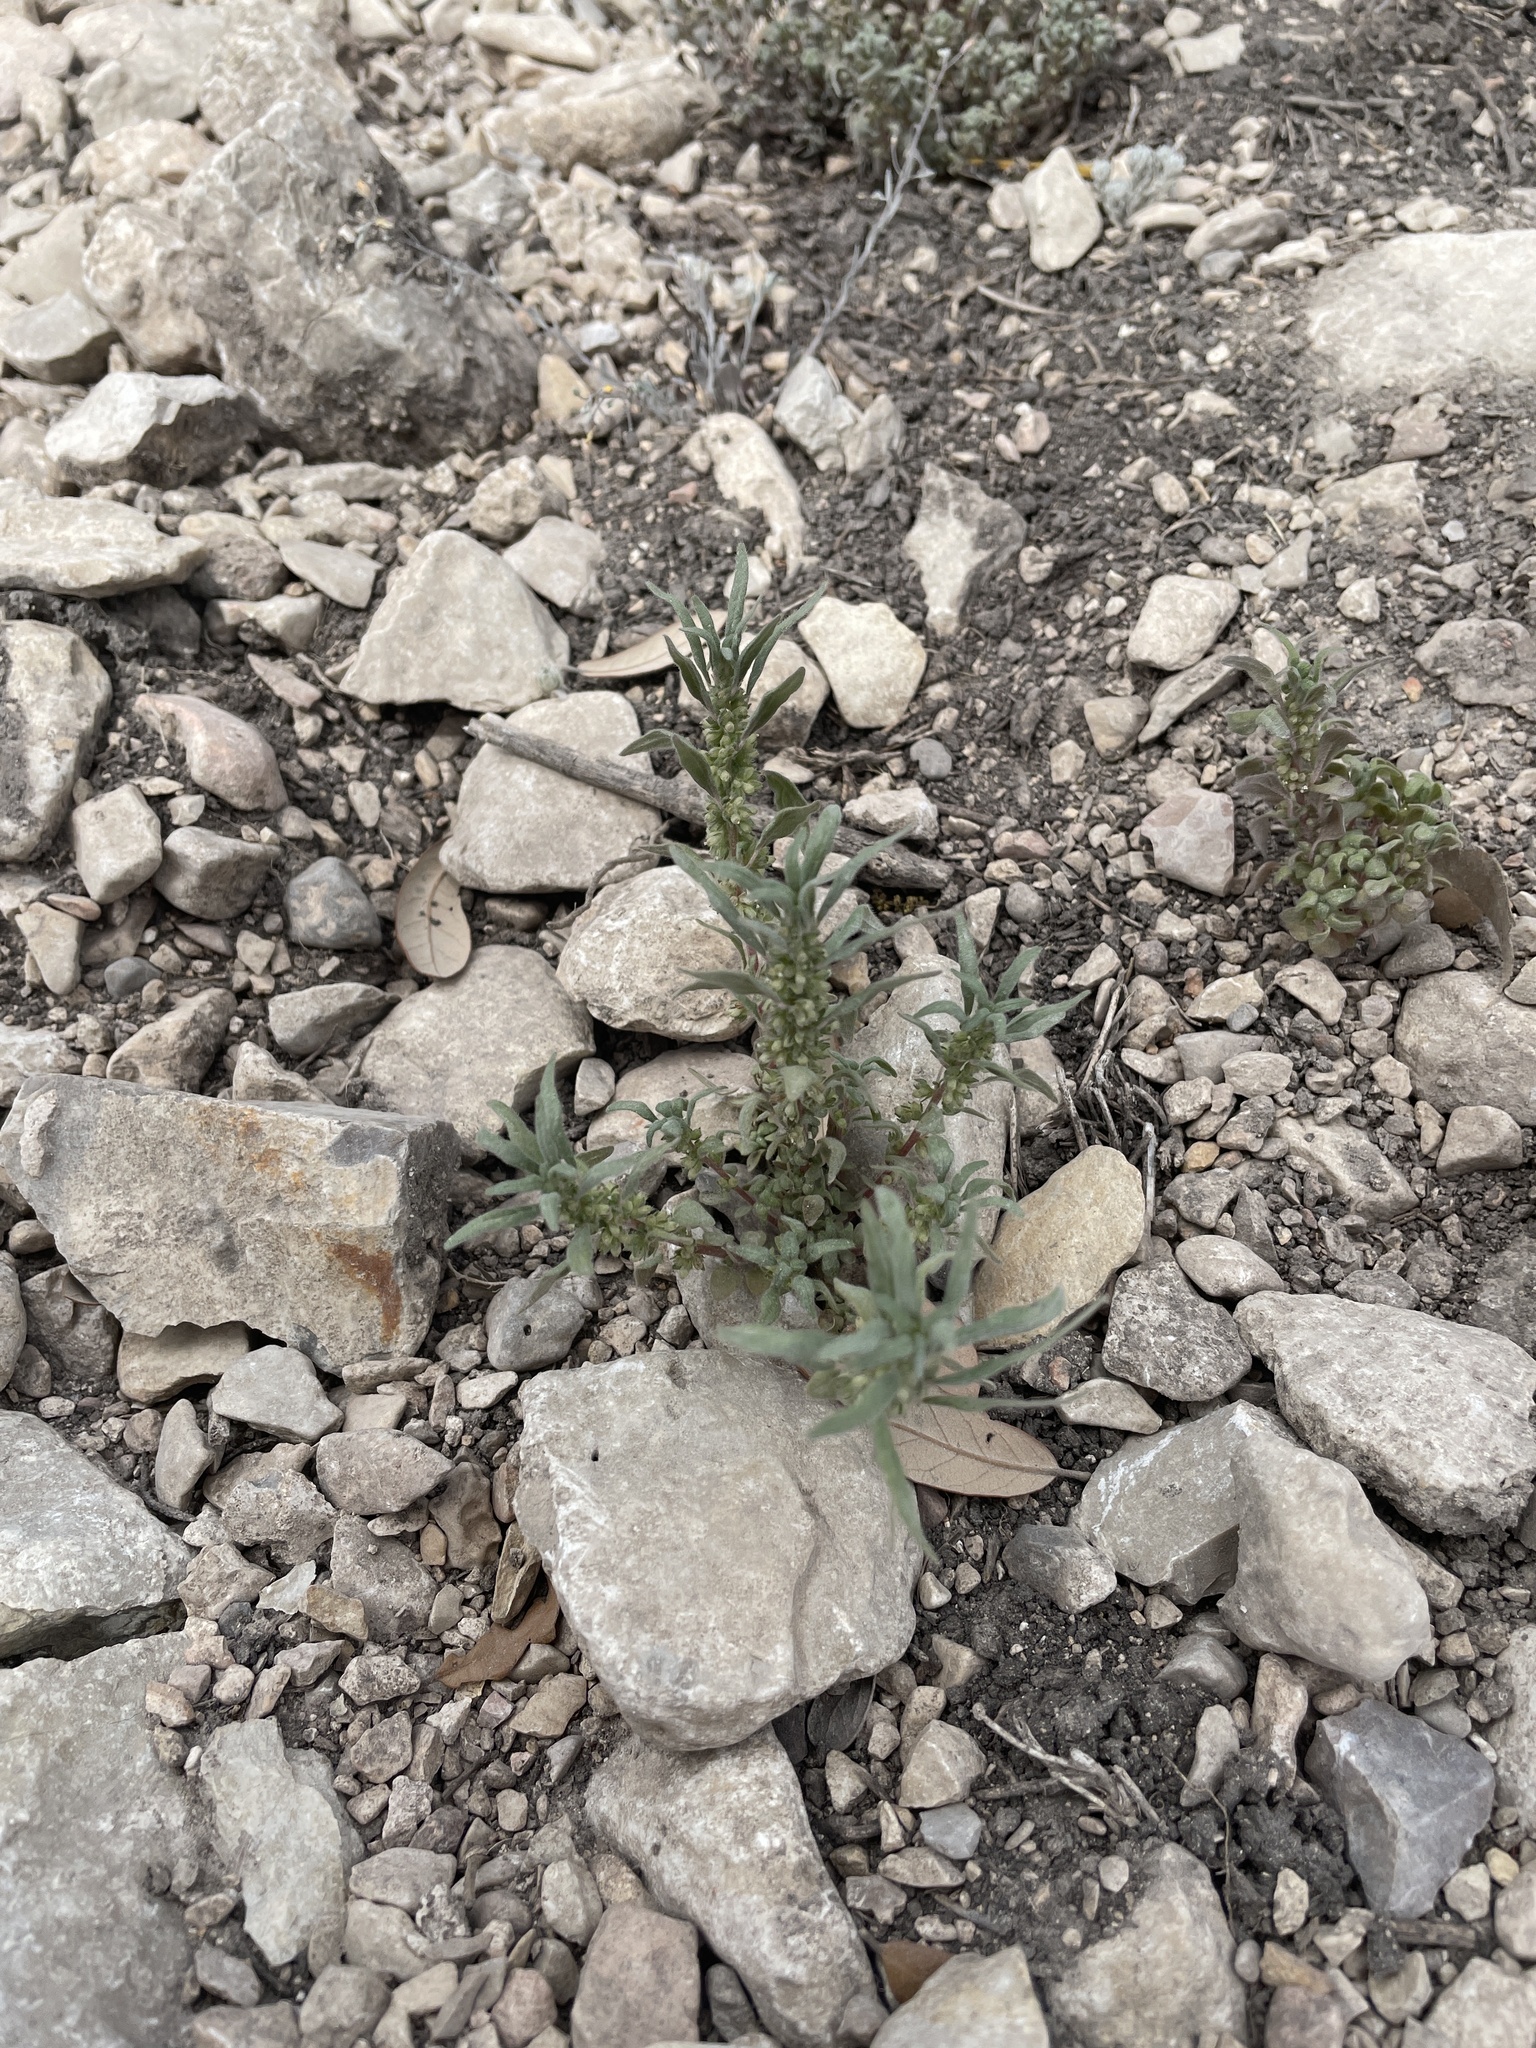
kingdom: Plantae
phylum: Tracheophyta
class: Magnoliopsida
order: Rosales
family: Urticaceae
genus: Parietaria
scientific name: Parietaria pensylvanica
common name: Pennsylvania pellitory
